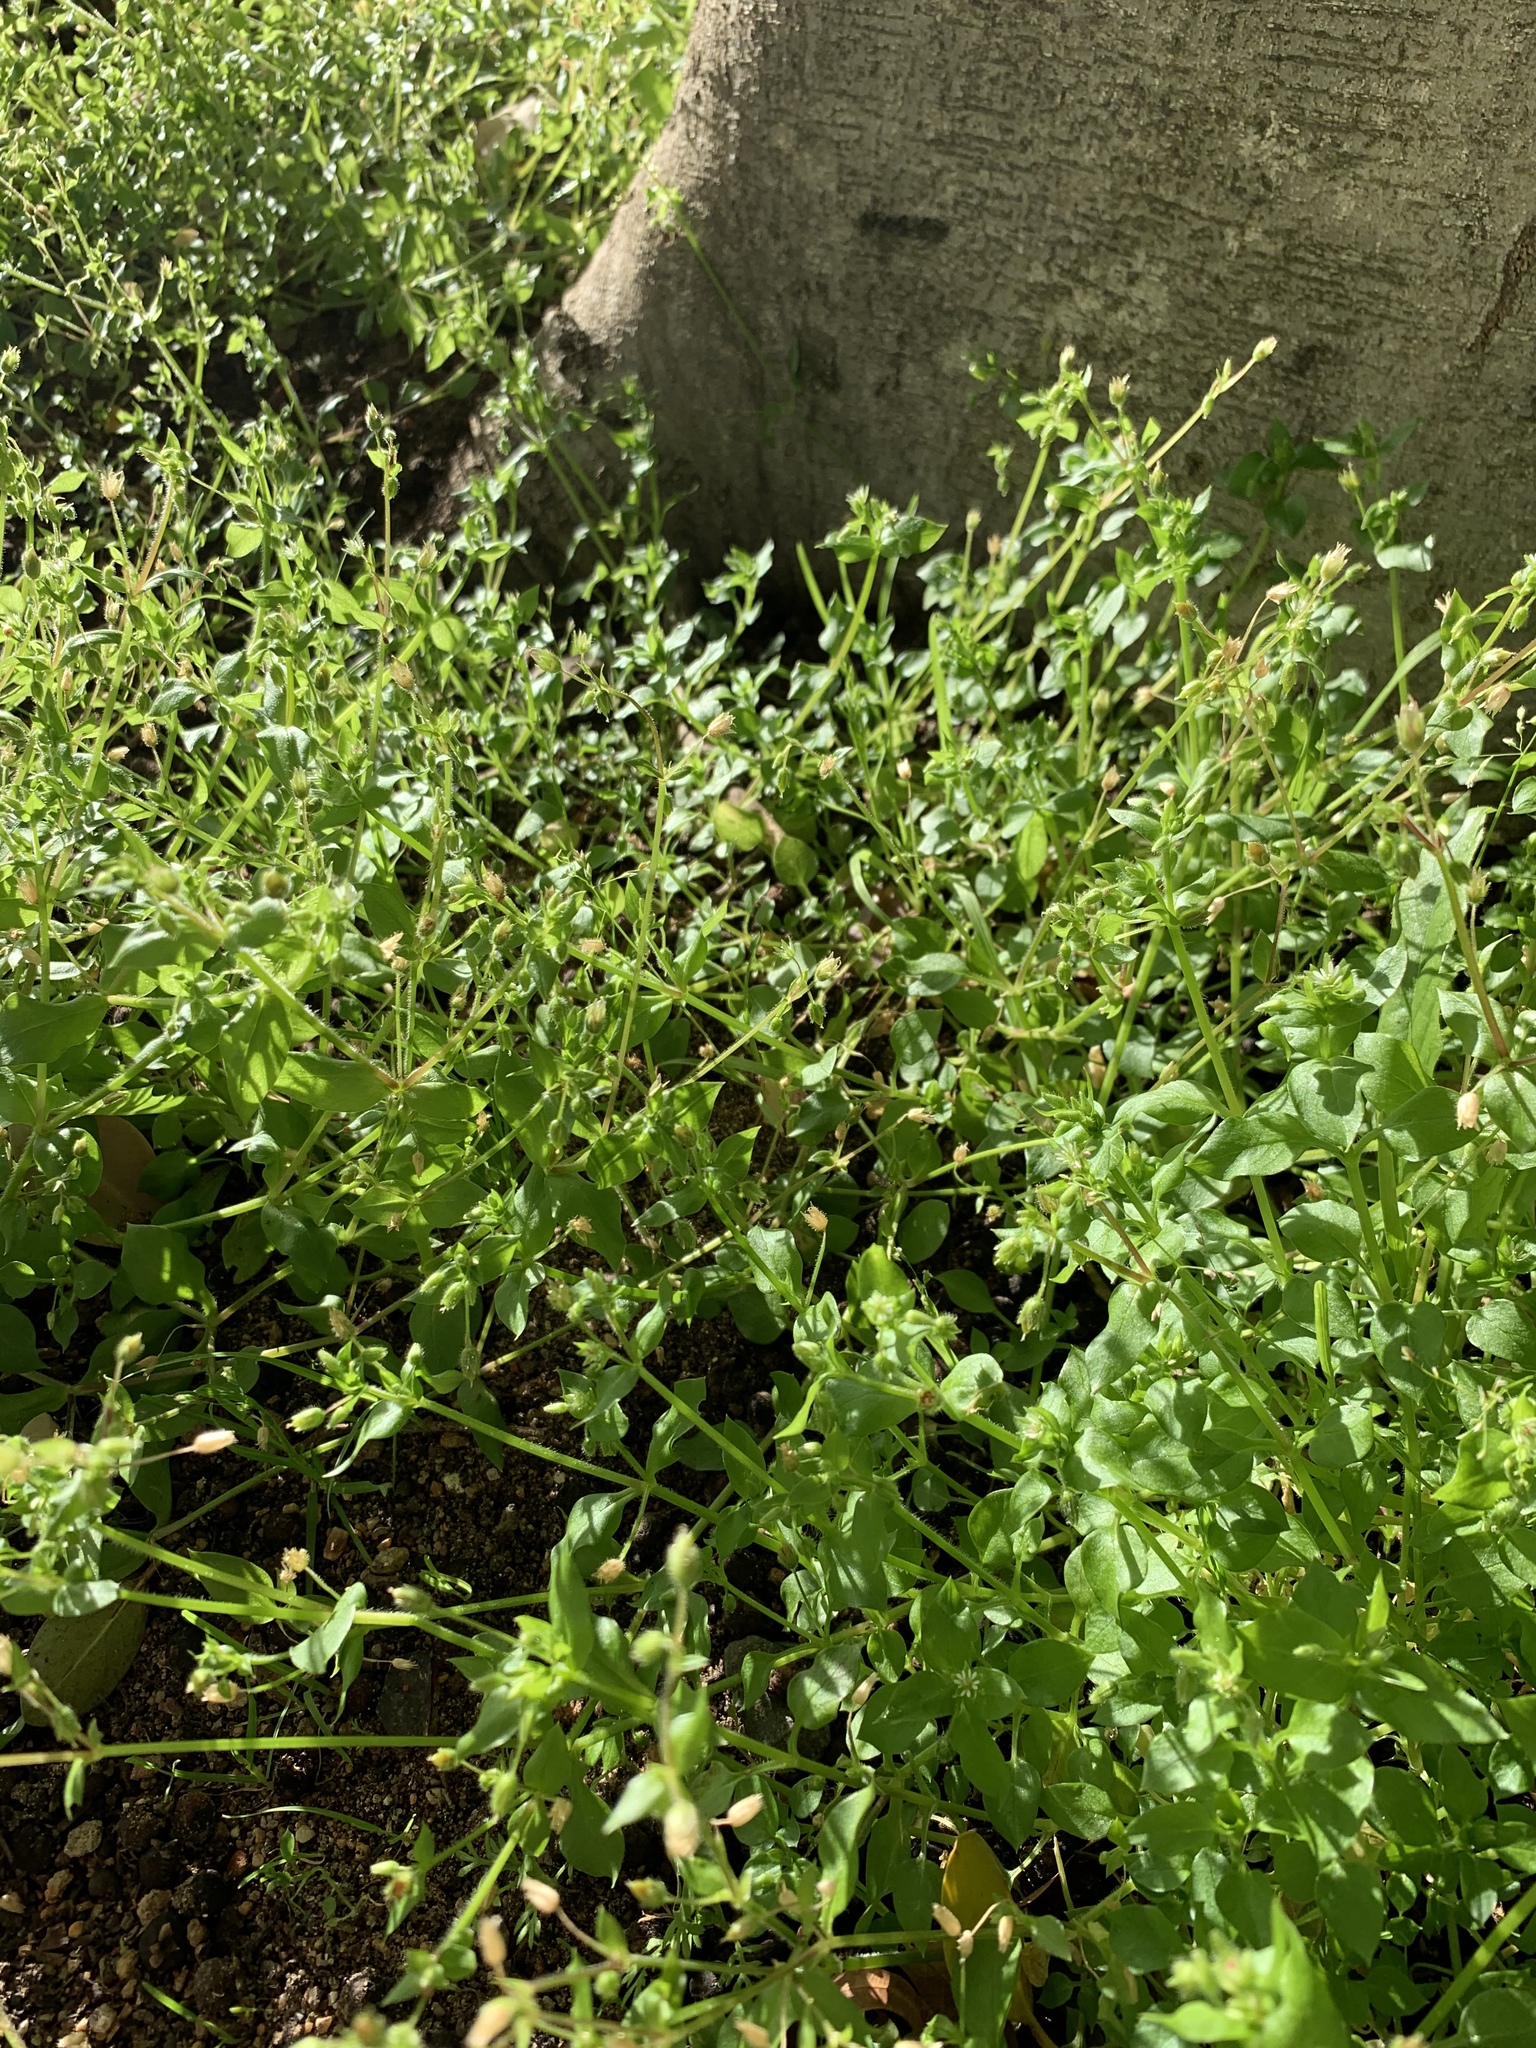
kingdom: Plantae
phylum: Tracheophyta
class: Magnoliopsida
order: Caryophyllales
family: Caryophyllaceae
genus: Stellaria
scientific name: Stellaria media
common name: Common chickweed
